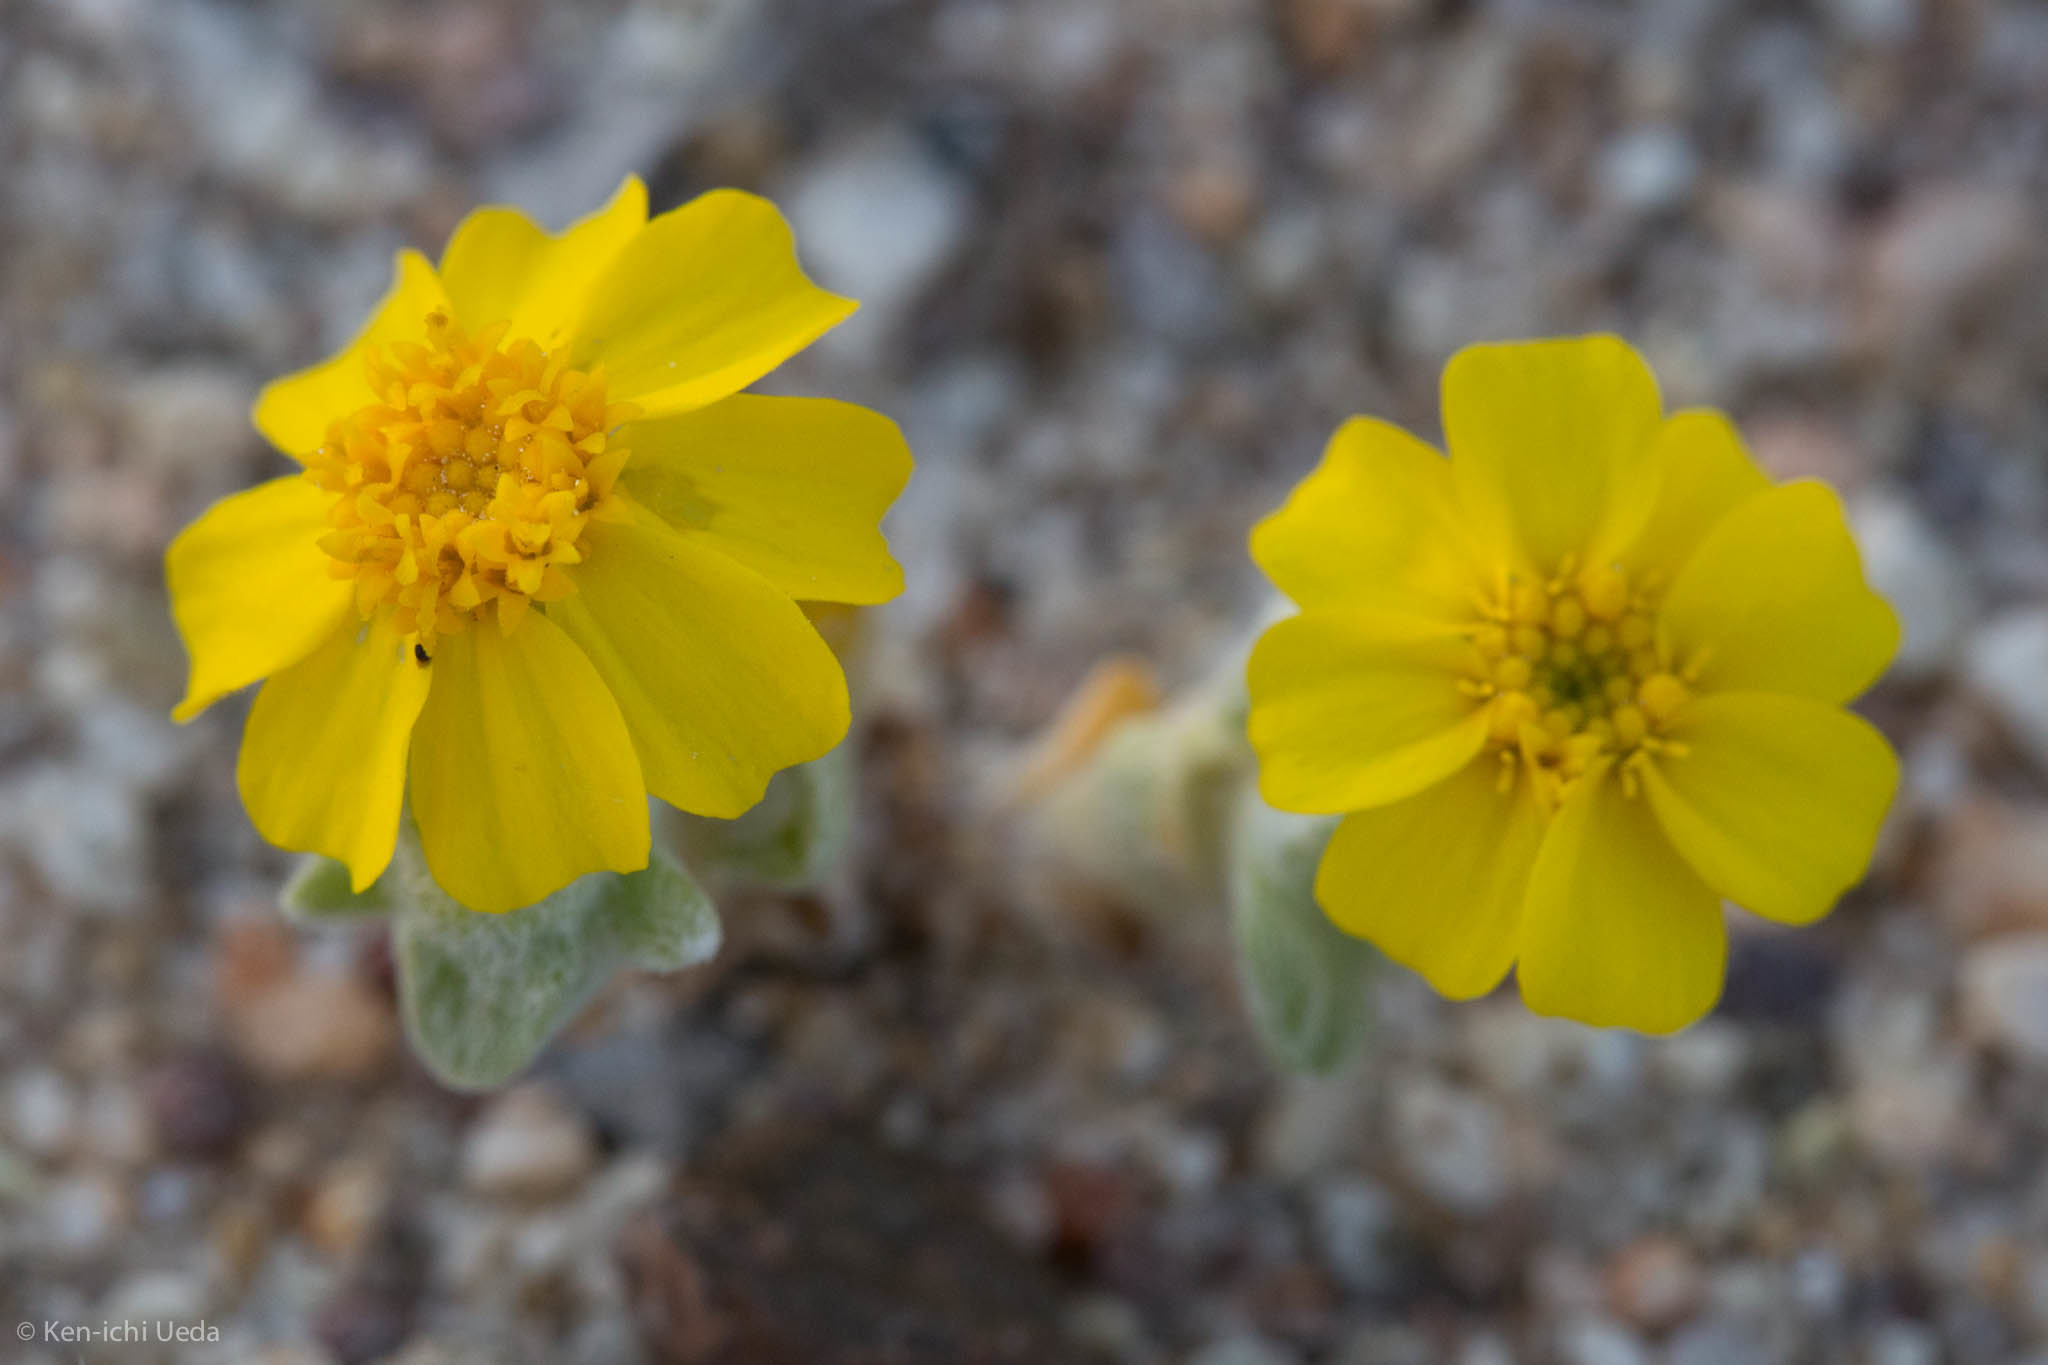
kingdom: Plantae
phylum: Tracheophyta
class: Magnoliopsida
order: Asterales
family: Asteraceae
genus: Eriophyllum
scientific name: Eriophyllum wallacei
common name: Wallace's woolly daisy
